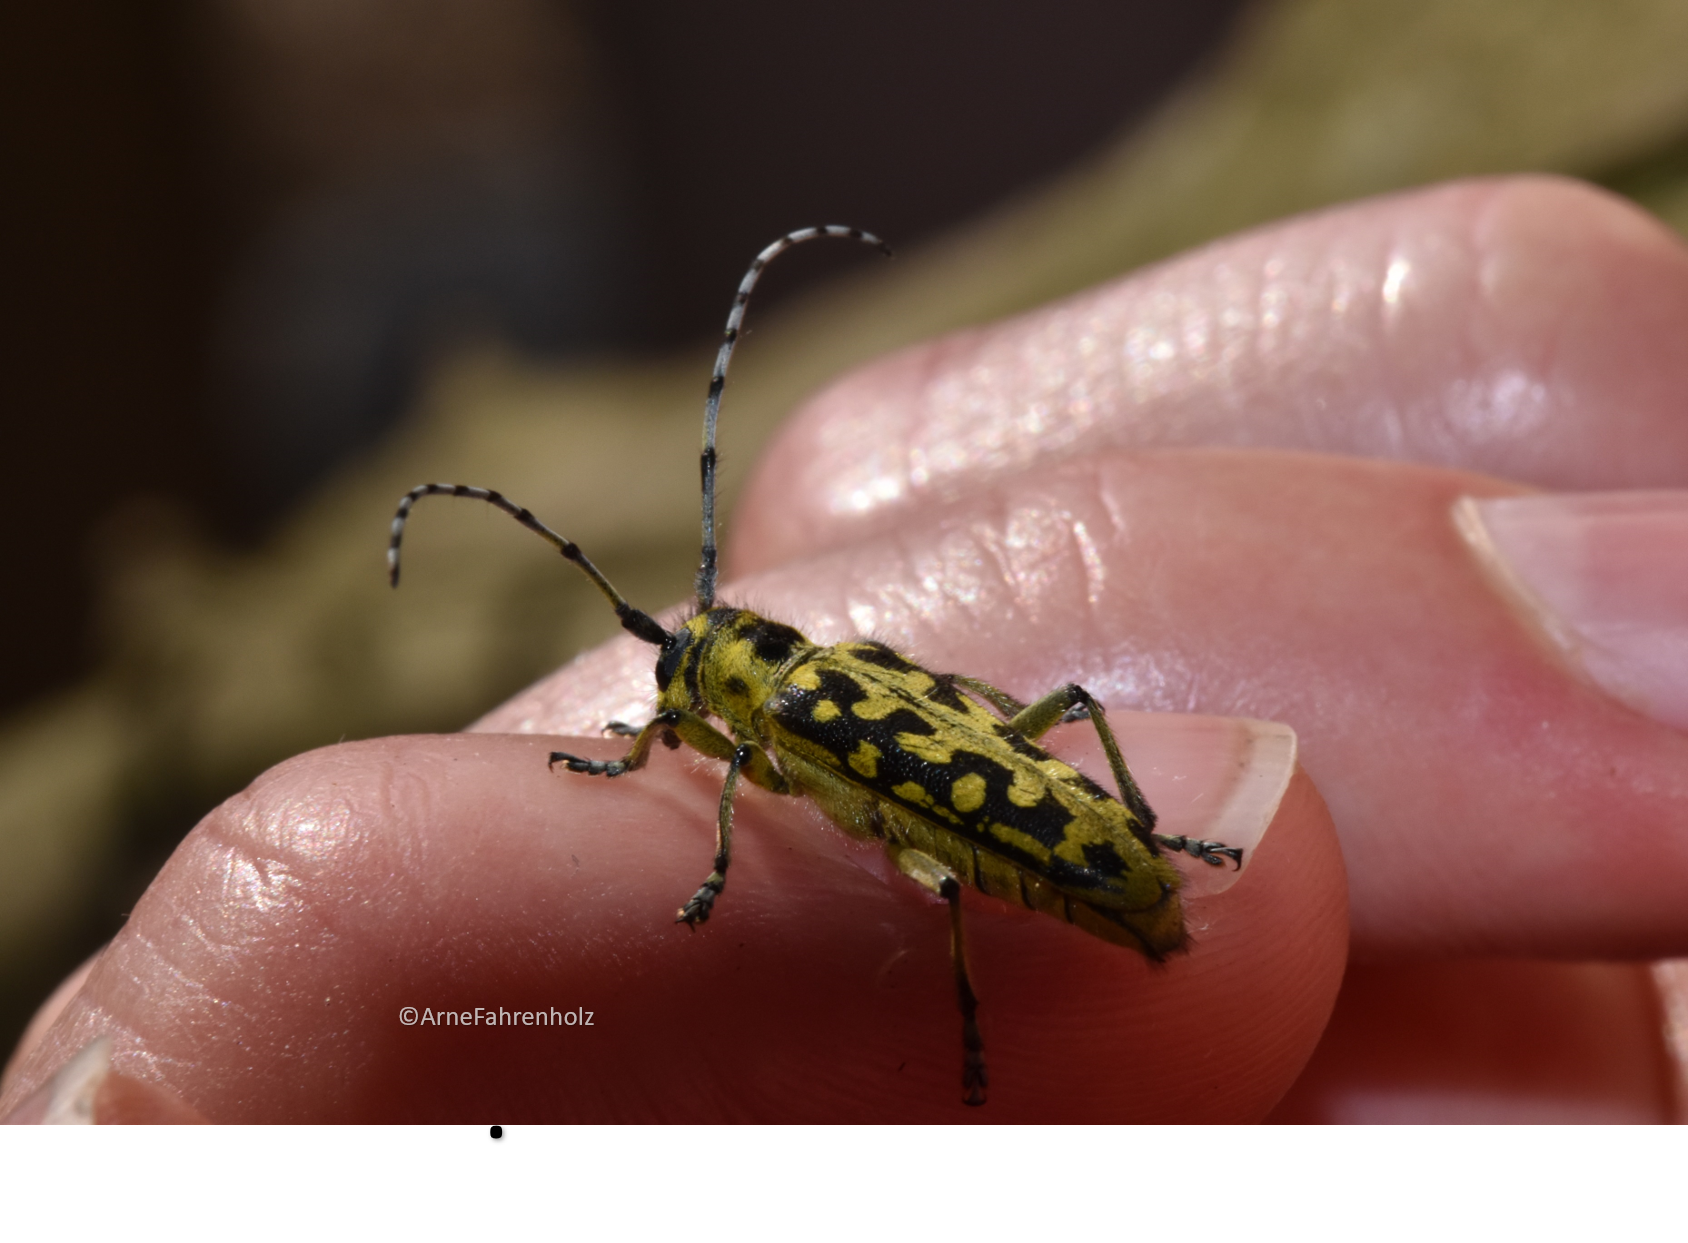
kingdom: Animalia
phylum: Arthropoda
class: Insecta
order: Coleoptera
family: Cerambycidae
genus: Saperda
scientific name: Saperda scalaris
